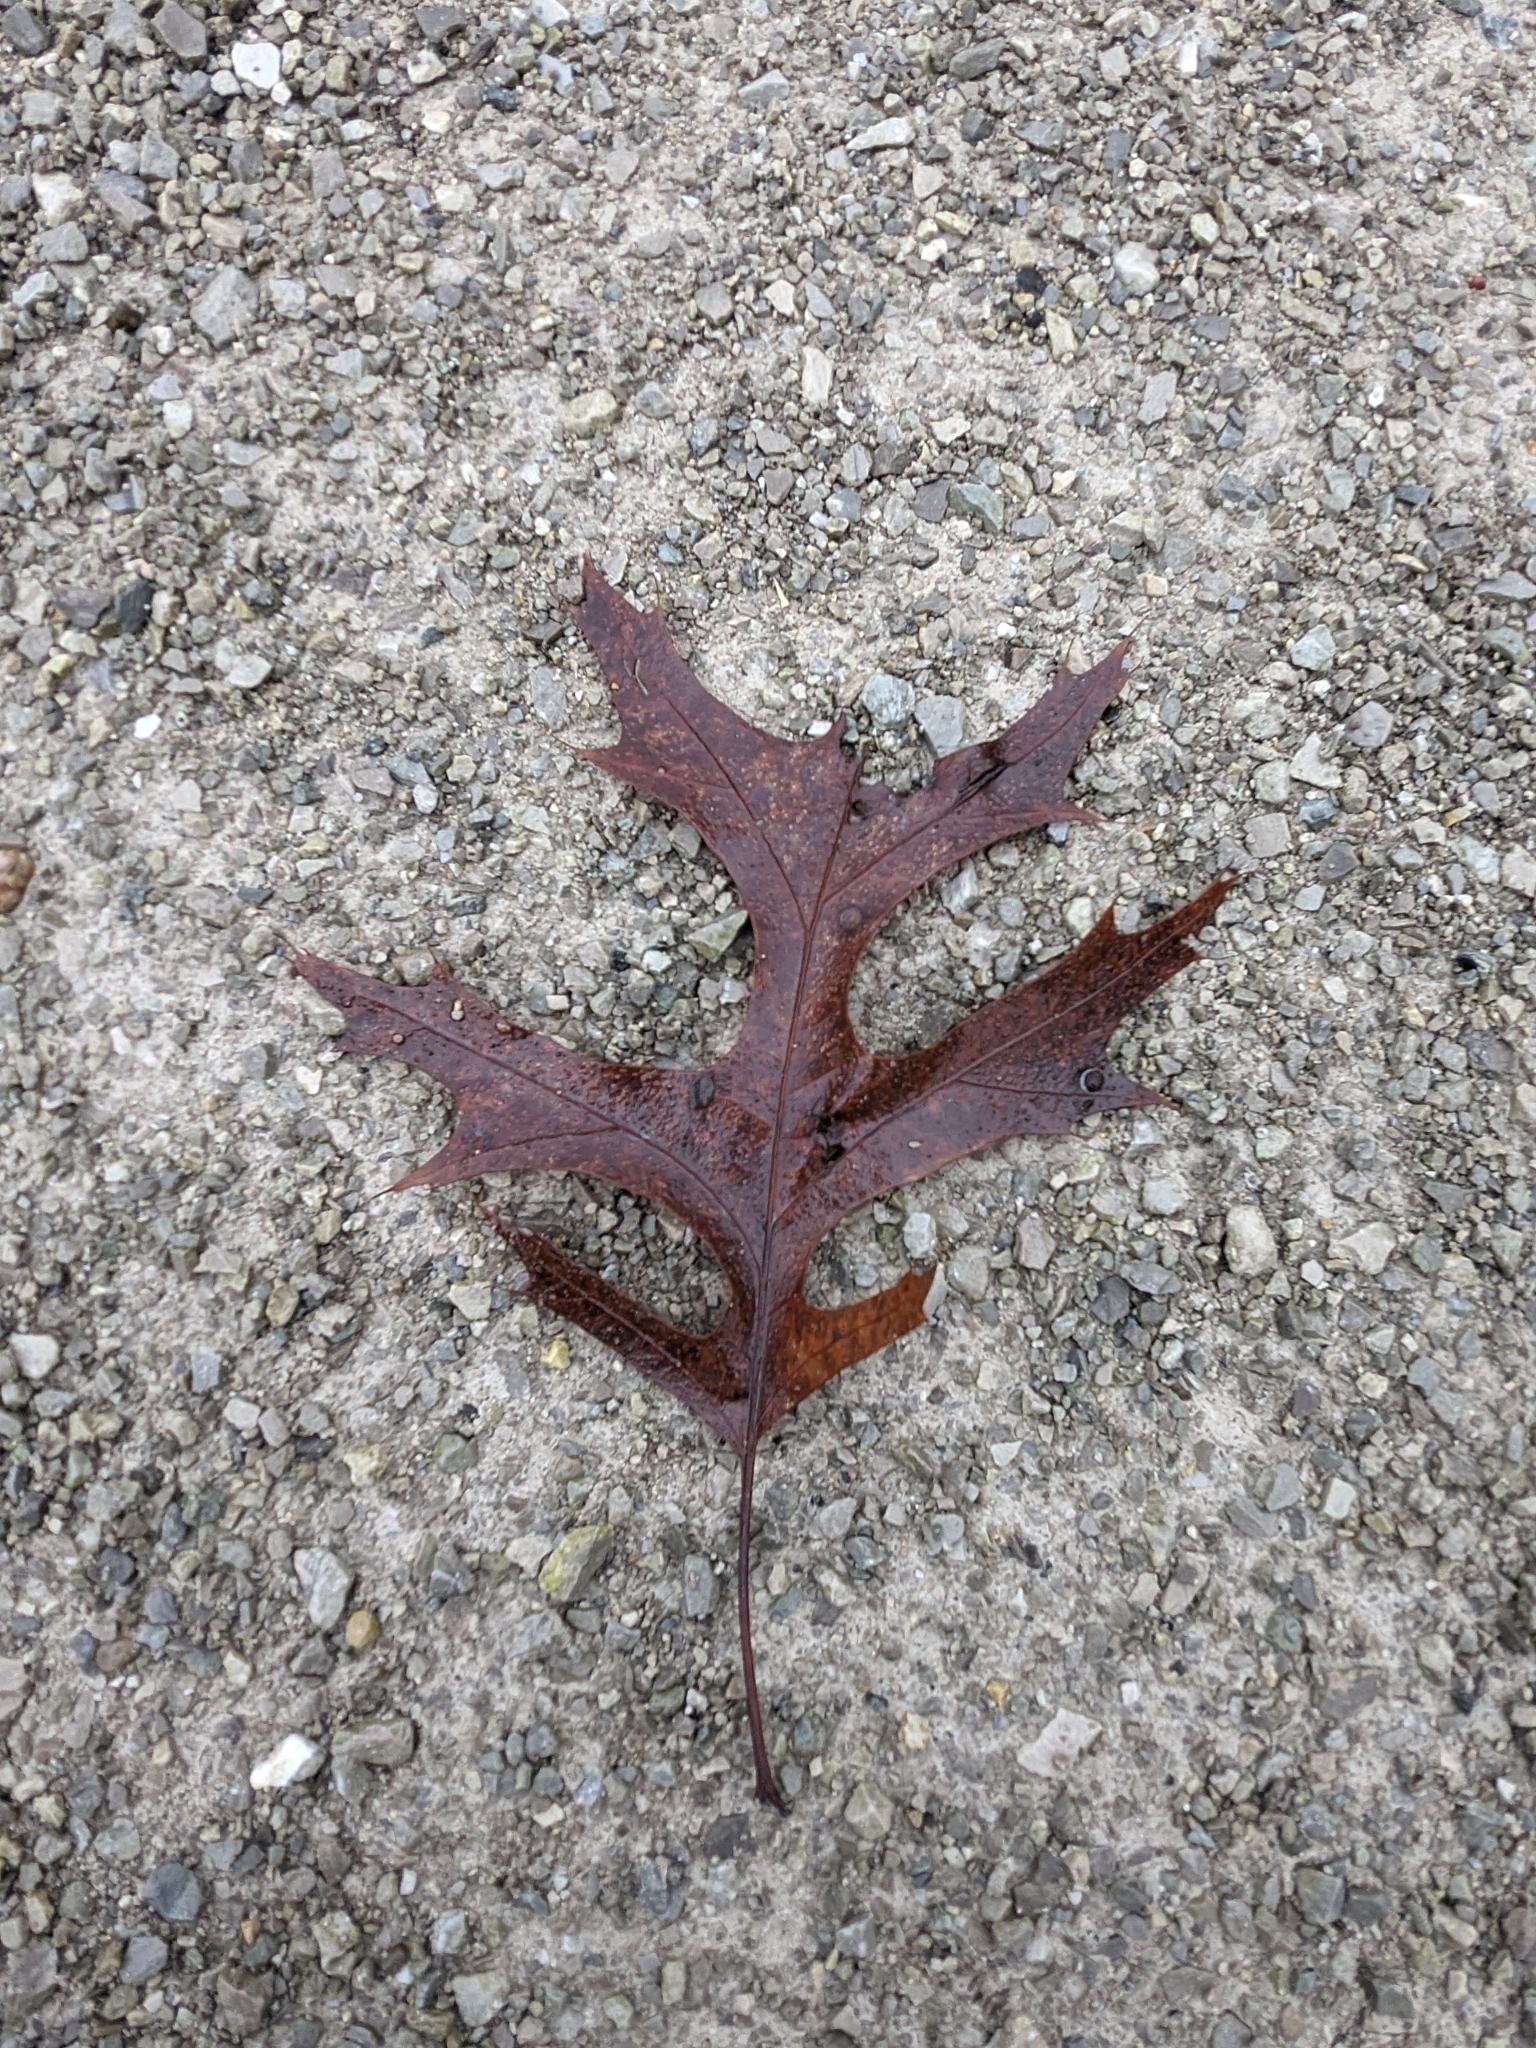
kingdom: Plantae
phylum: Tracheophyta
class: Magnoliopsida
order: Fagales
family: Fagaceae
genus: Quercus
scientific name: Quercus coccinea
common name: Scarlet oak
